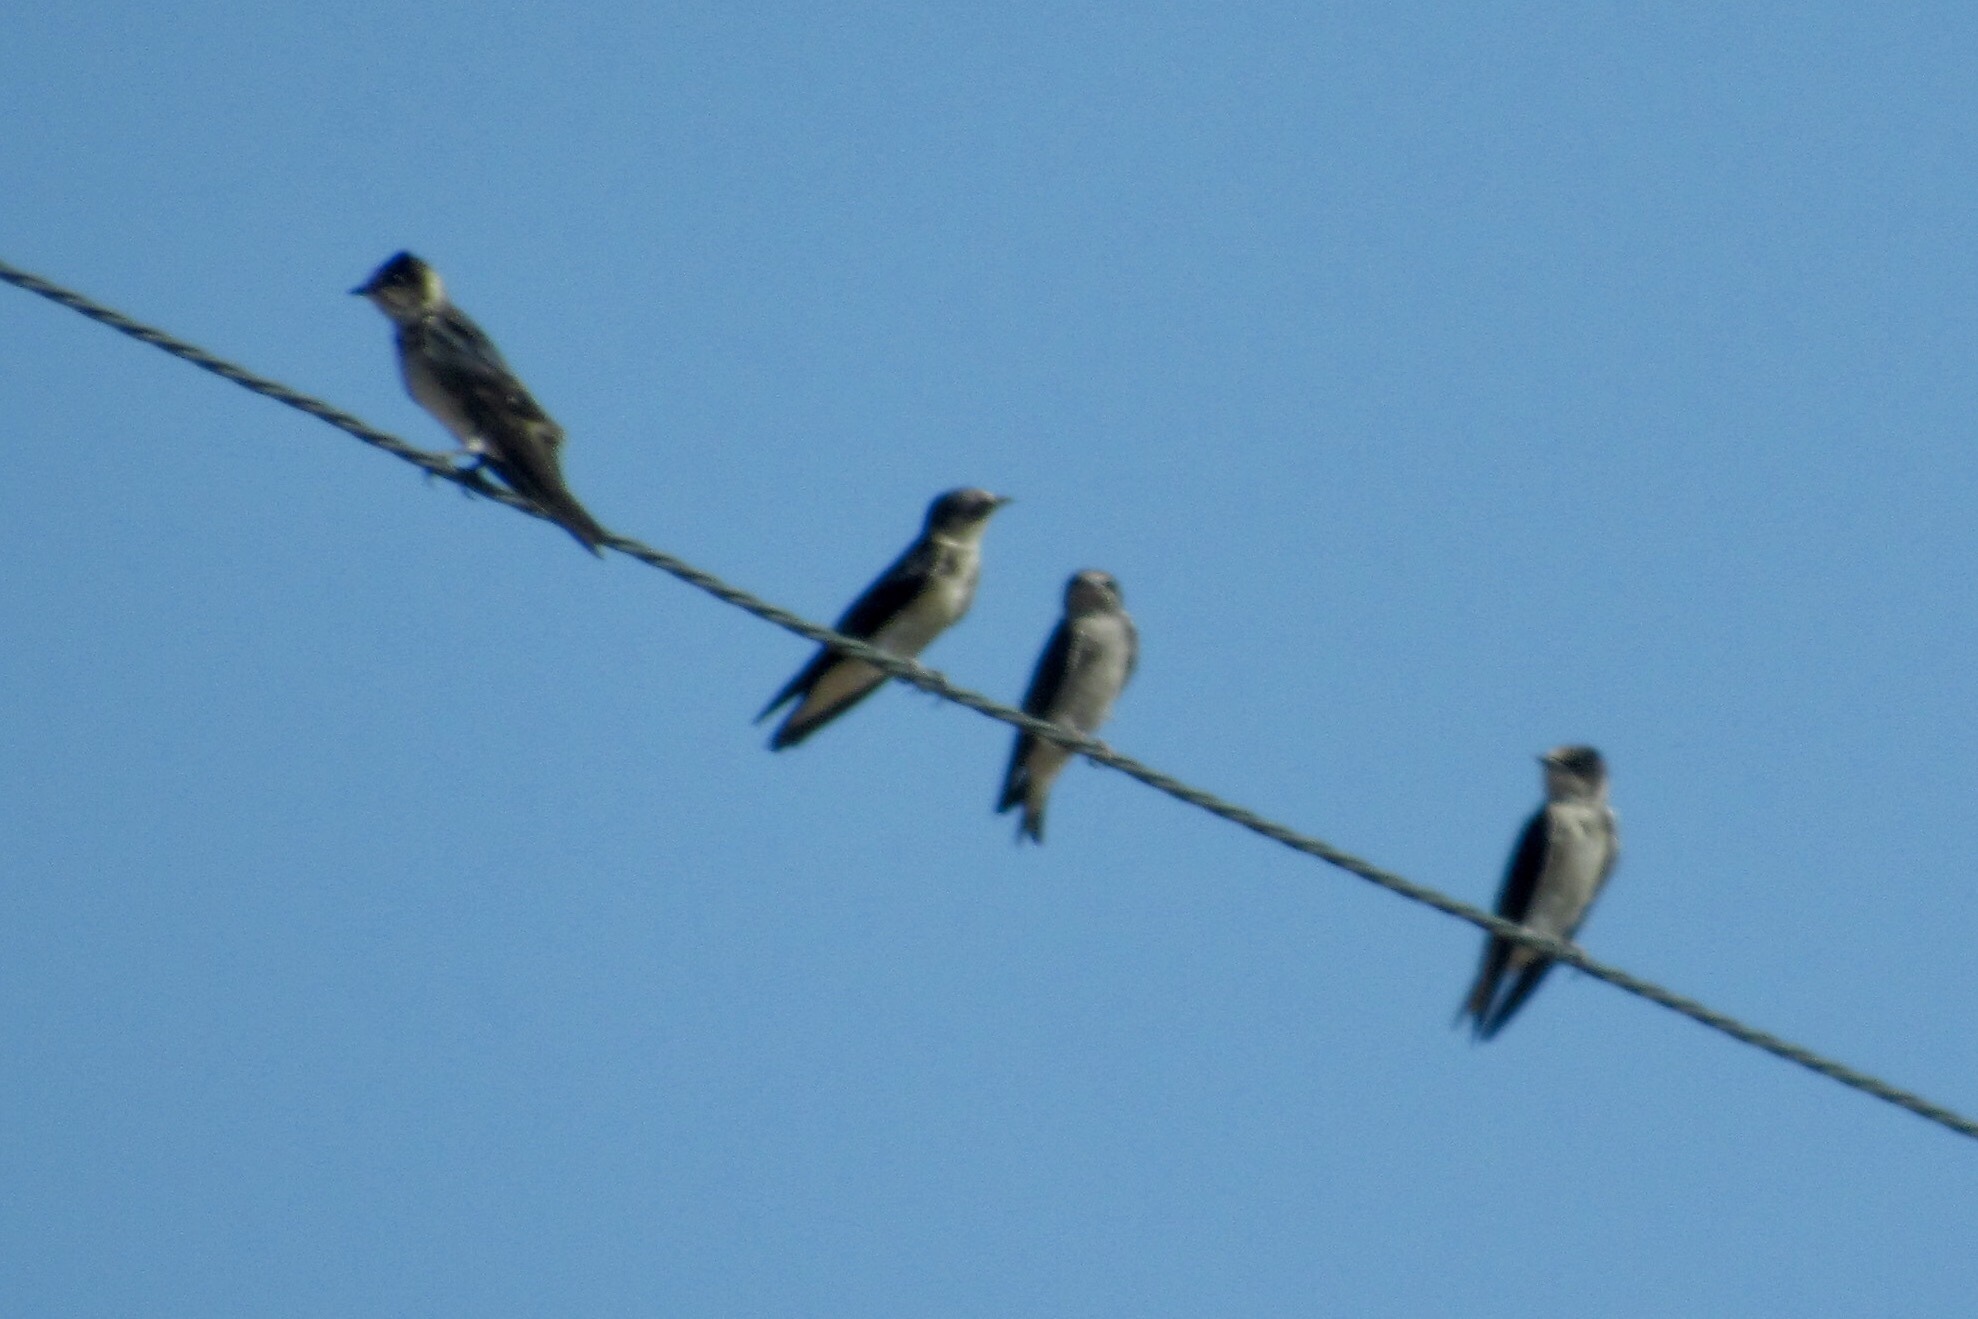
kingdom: Animalia
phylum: Chordata
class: Aves
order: Passeriformes
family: Hirundinidae
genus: Progne
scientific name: Progne subis
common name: Purple martin
